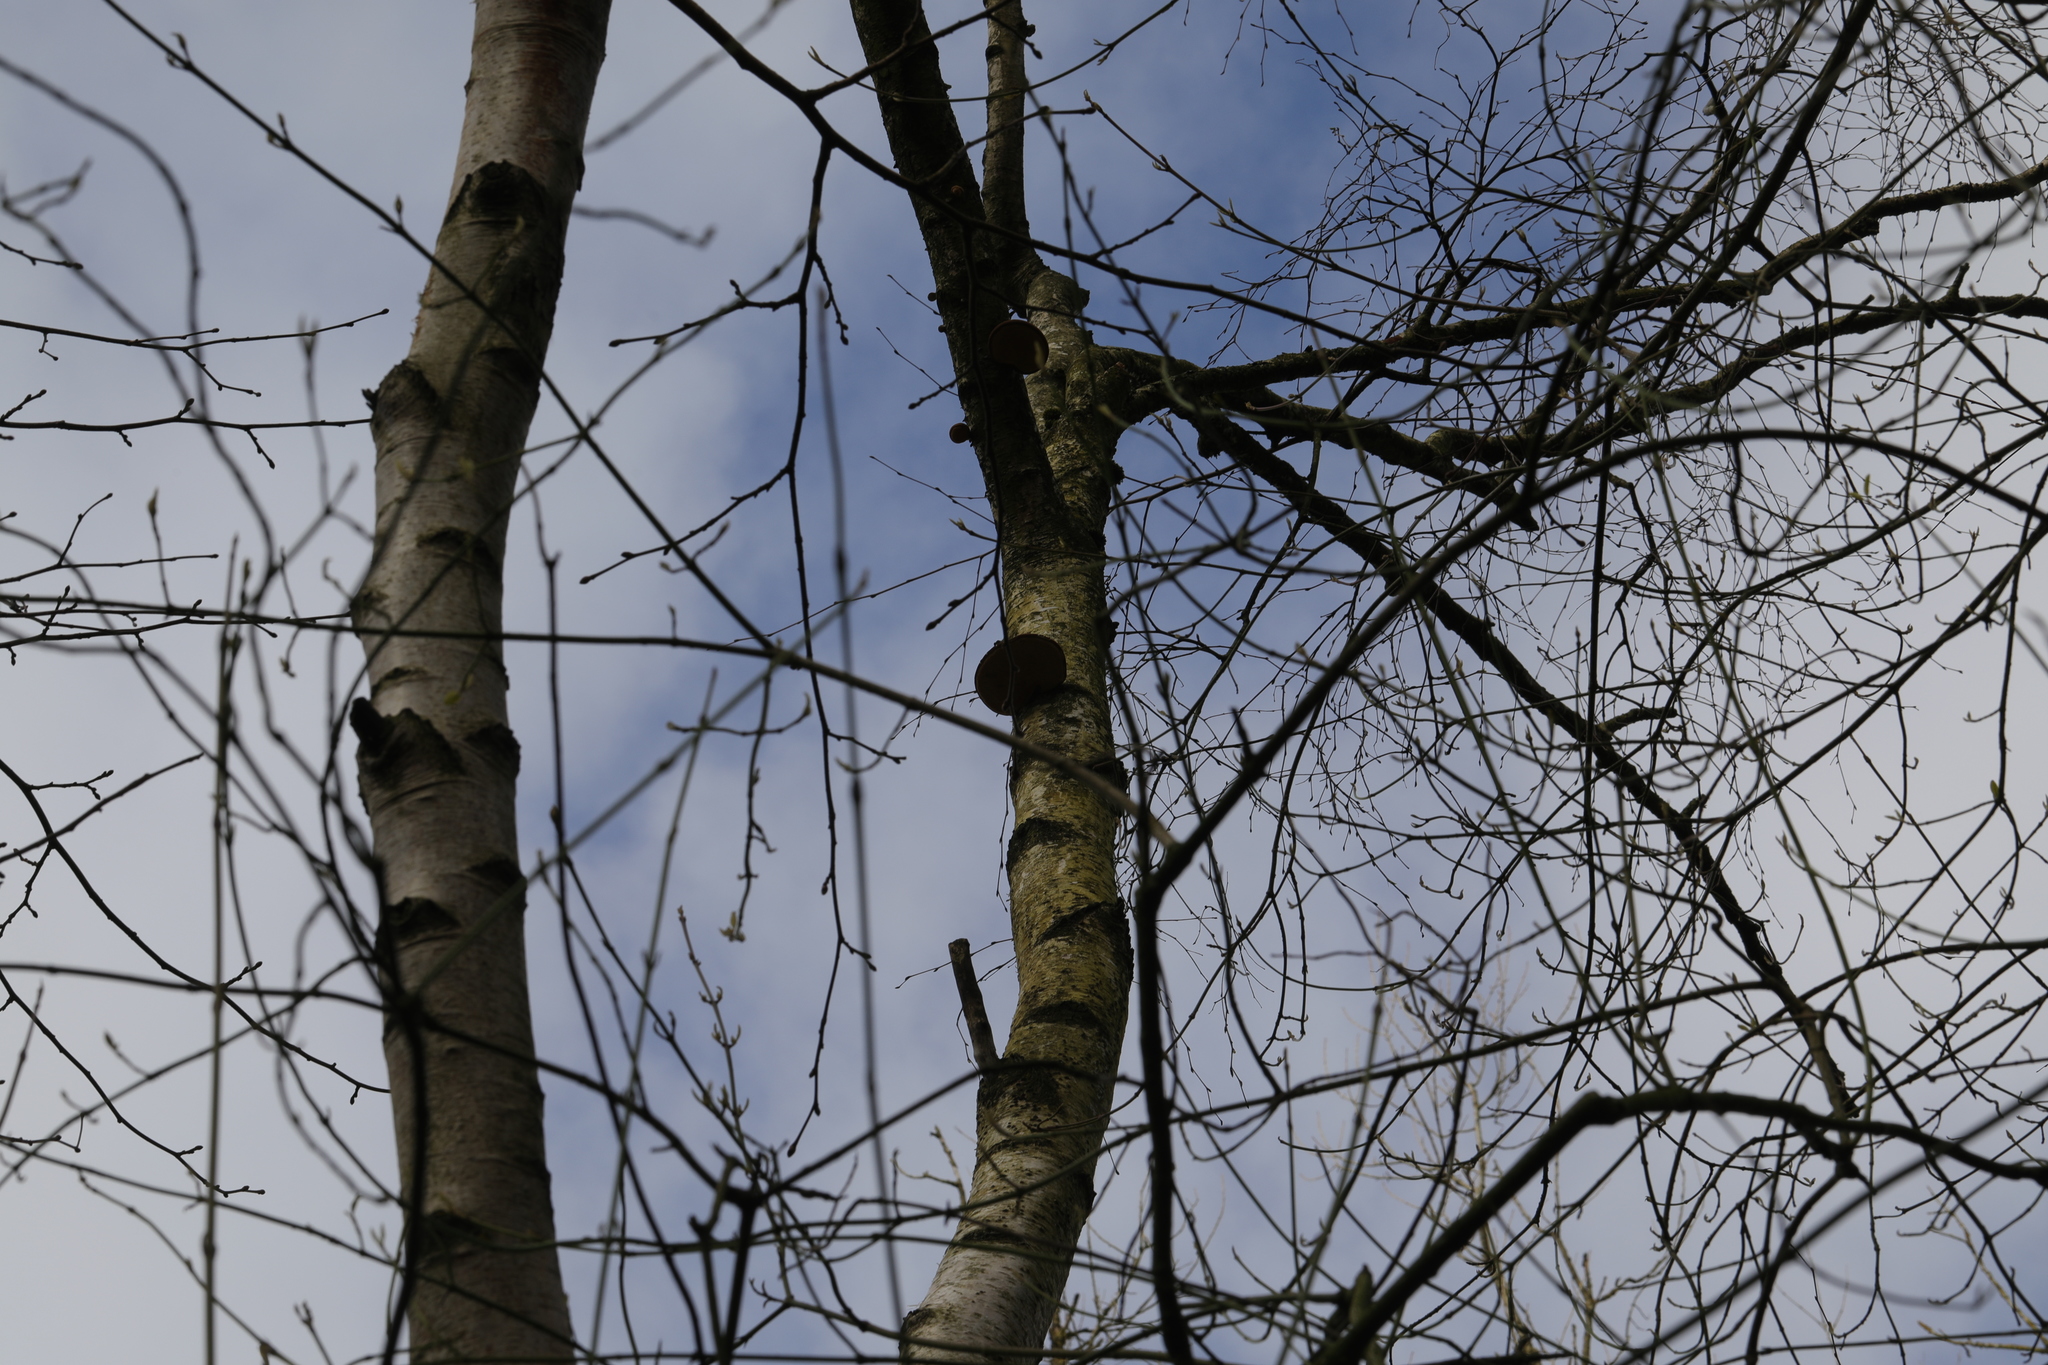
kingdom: Fungi
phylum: Basidiomycota
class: Agaricomycetes
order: Polyporales
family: Fomitopsidaceae
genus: Fomitopsis
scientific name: Fomitopsis betulina
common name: Birch polypore
